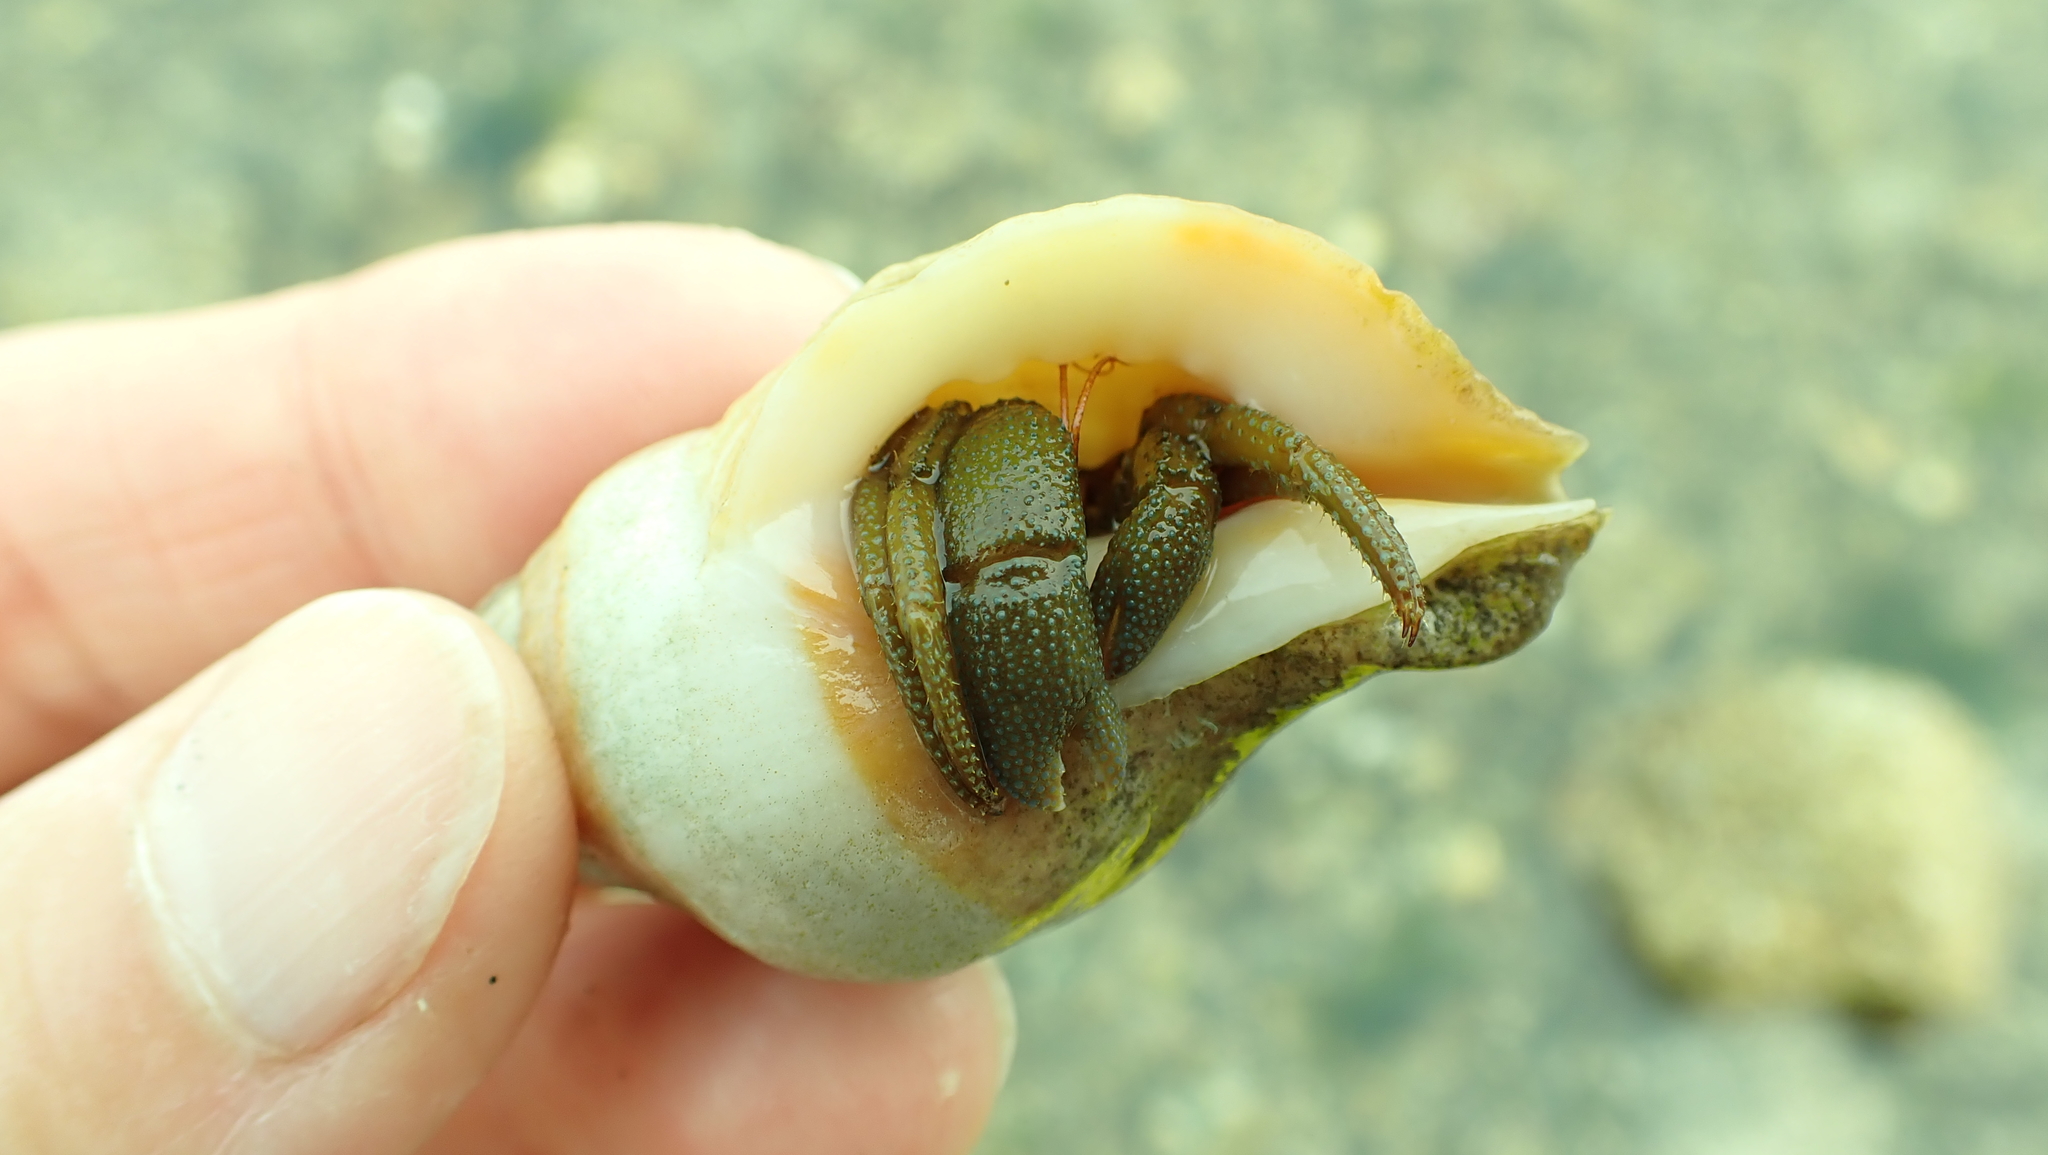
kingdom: Animalia
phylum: Arthropoda
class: Malacostraca
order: Decapoda
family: Paguridae
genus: Pagurus
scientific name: Pagurus granosimanus
